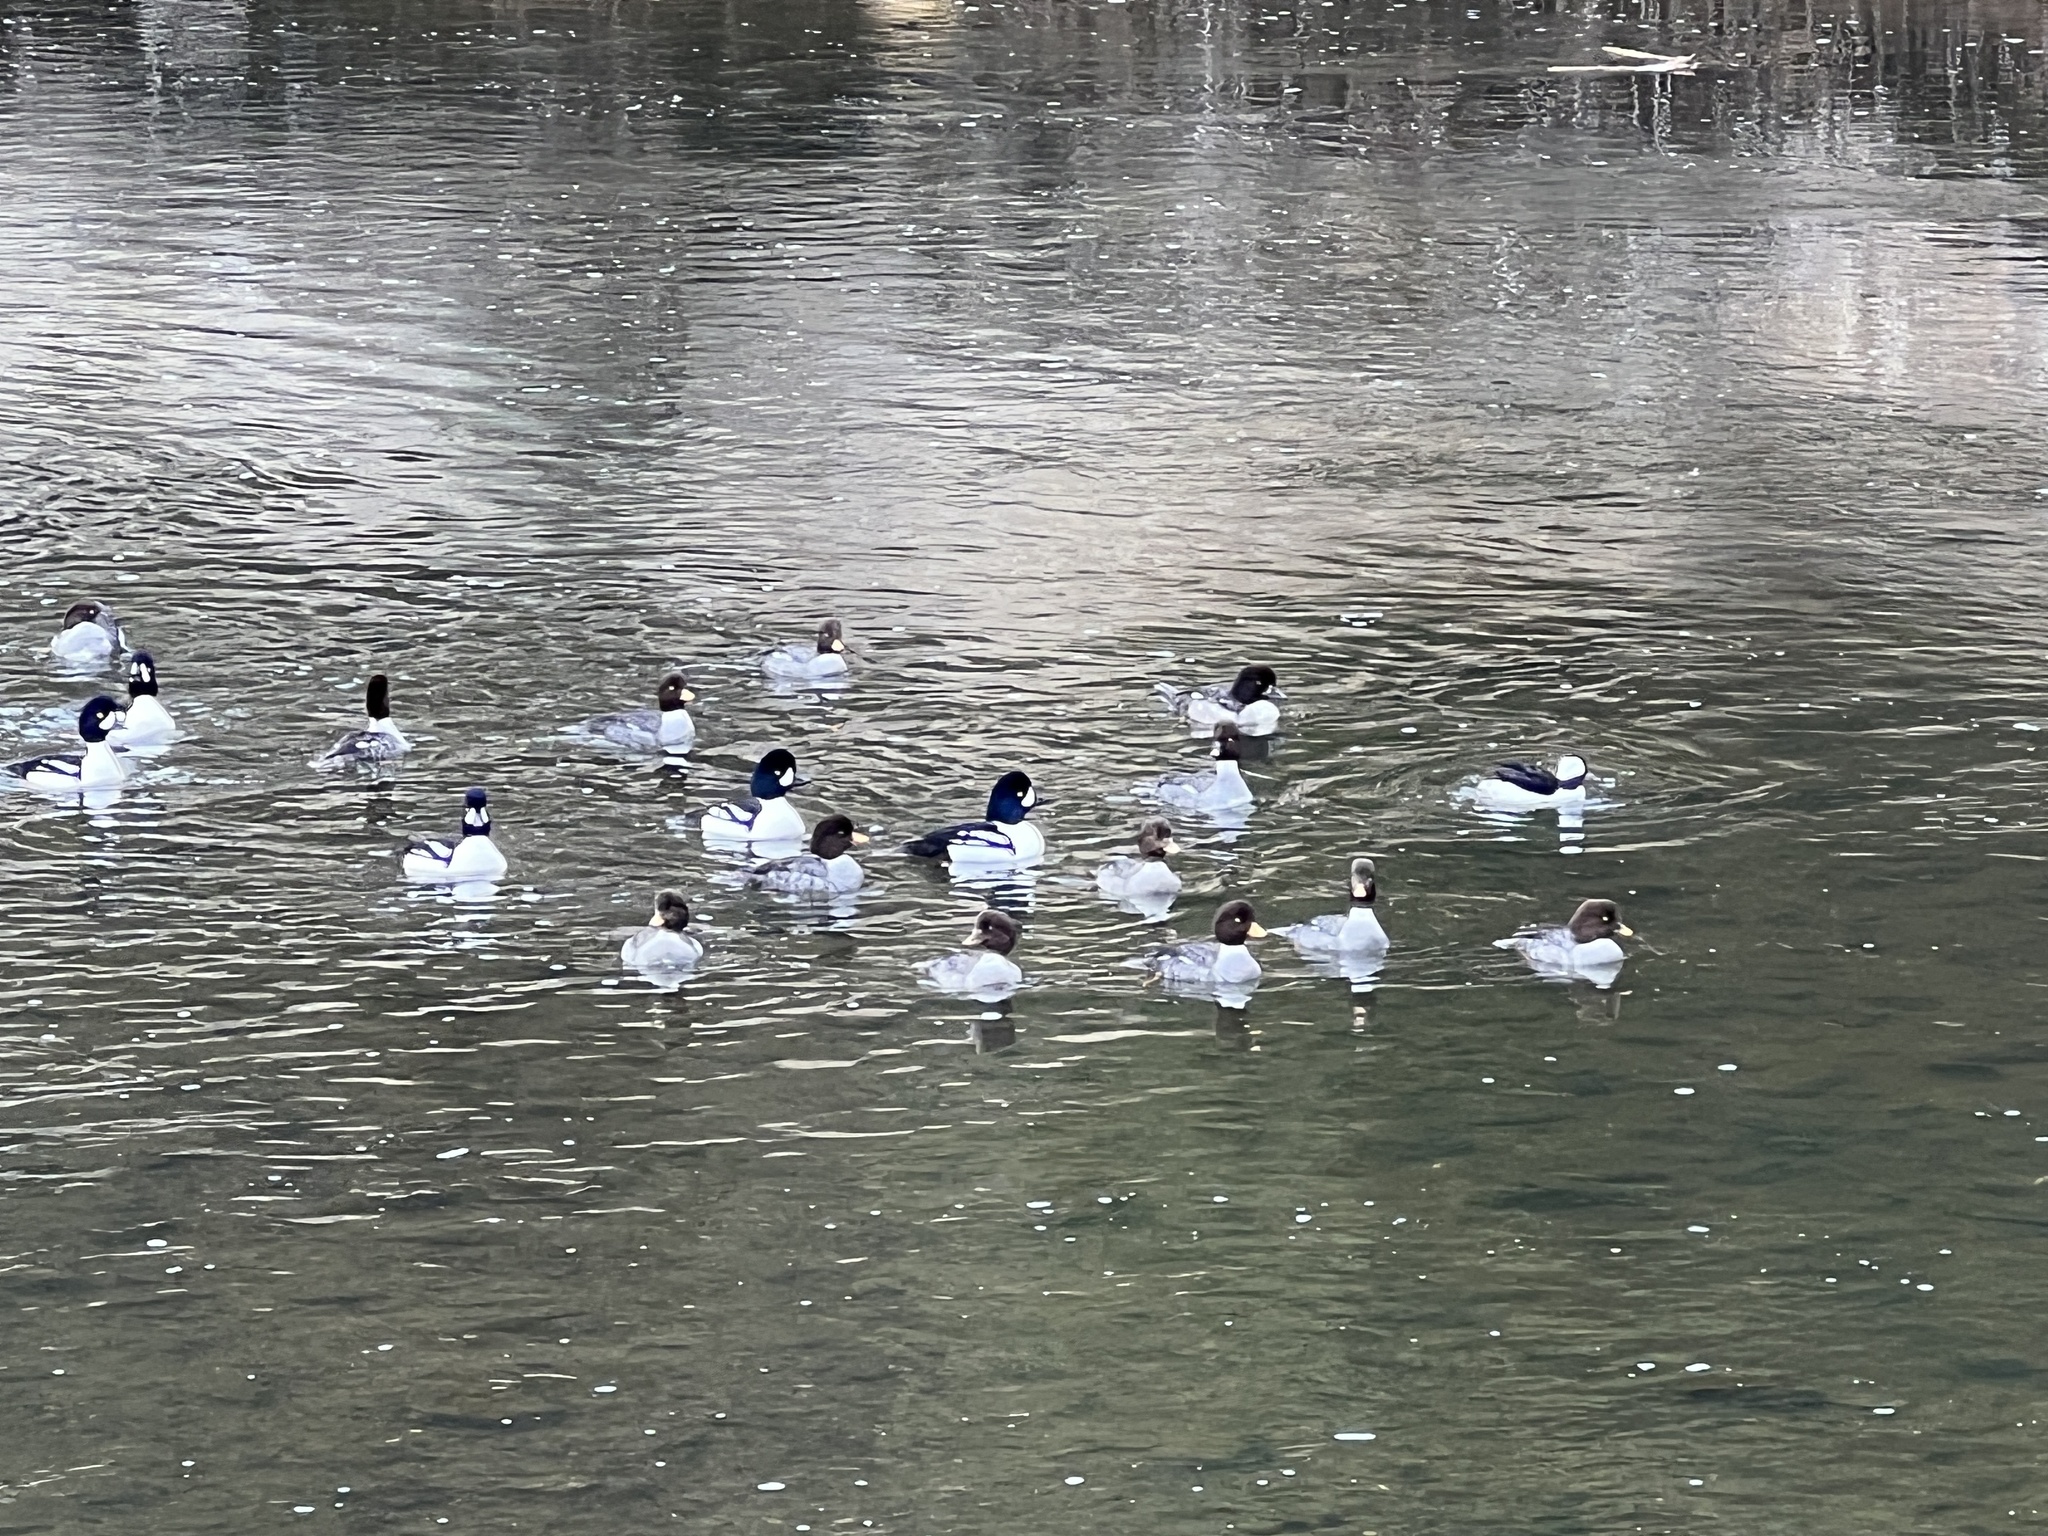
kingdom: Animalia
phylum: Chordata
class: Aves
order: Anseriformes
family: Anatidae
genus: Bucephala
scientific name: Bucephala islandica
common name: Barrow's goldeneye
